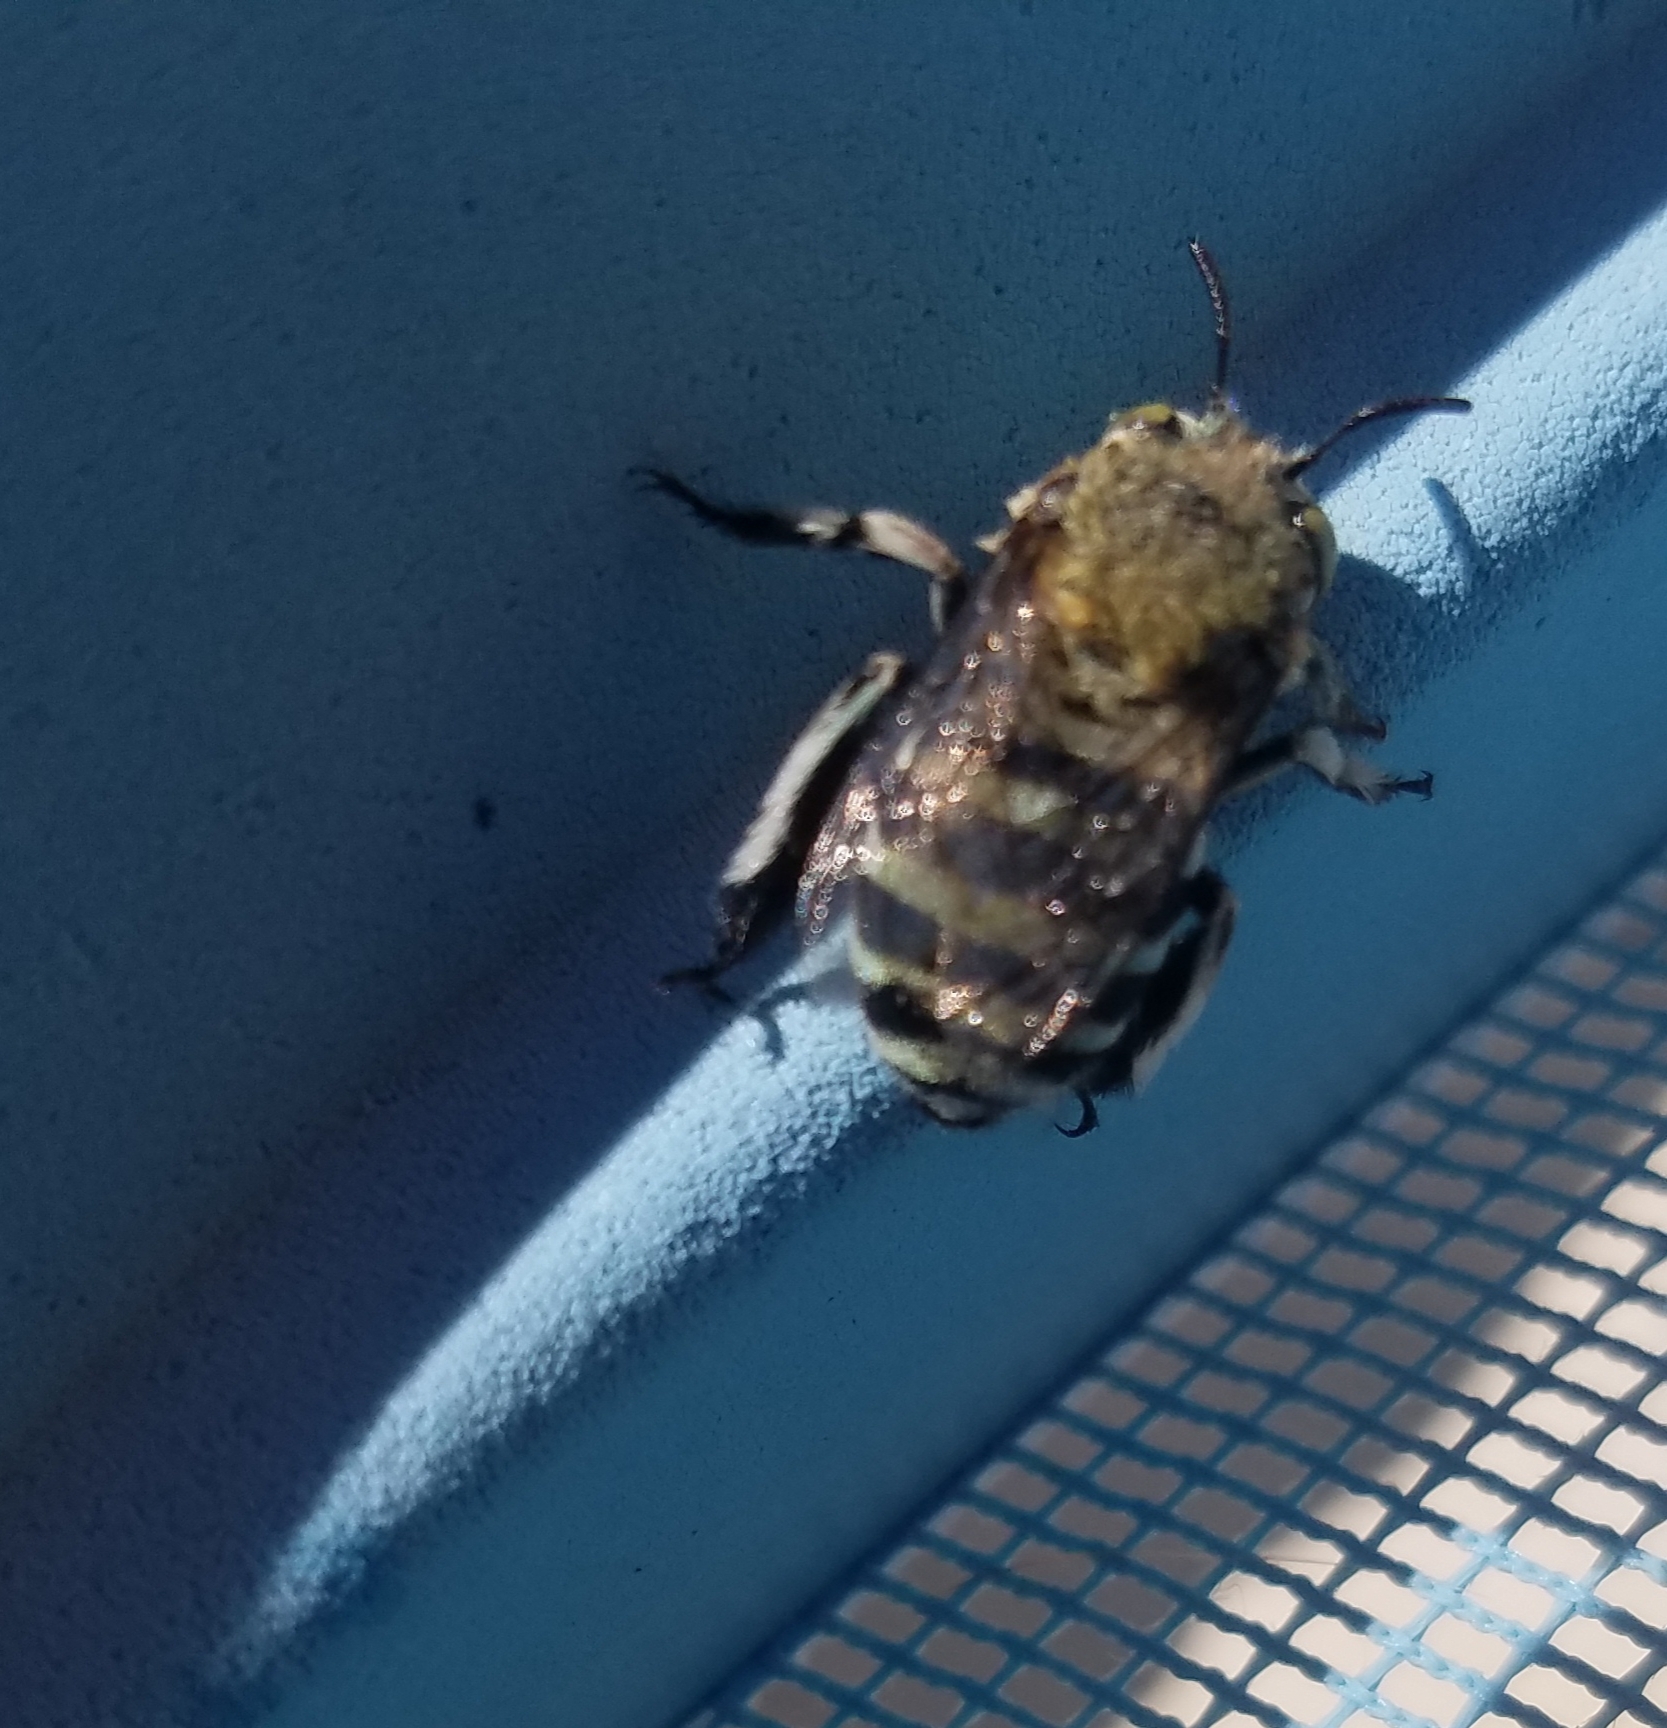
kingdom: Animalia
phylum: Arthropoda
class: Insecta
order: Hymenoptera
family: Apidae
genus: Amegilla
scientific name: Amegilla chlorocyanea
